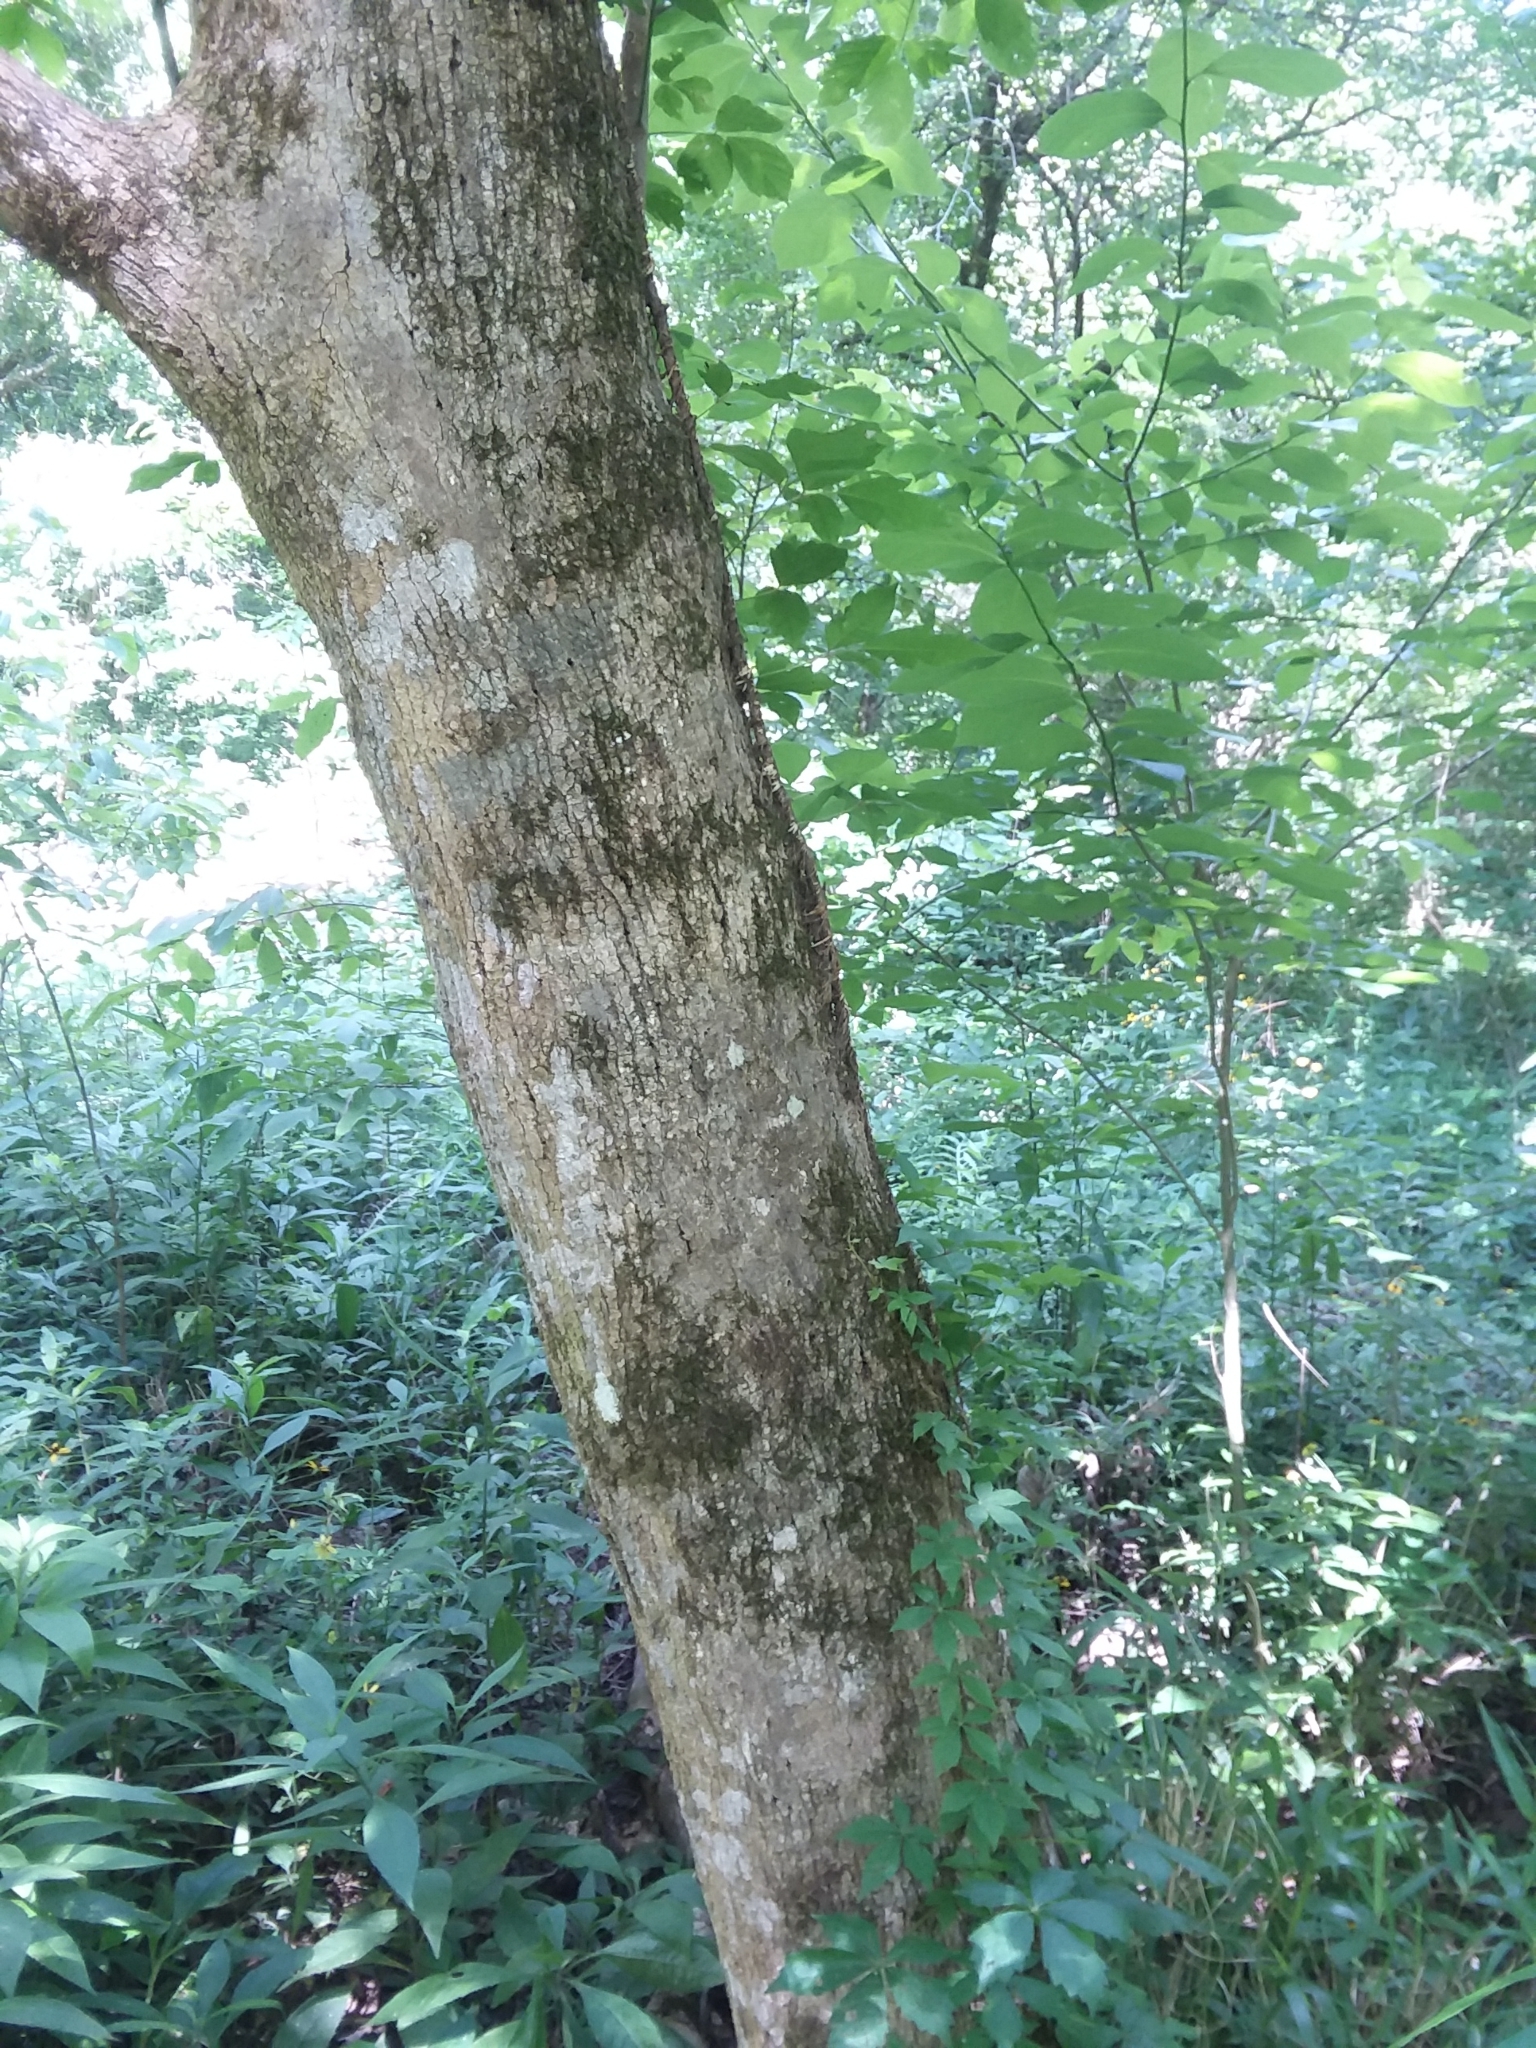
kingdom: Plantae
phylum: Tracheophyta
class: Magnoliopsida
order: Sapindales
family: Sapindaceae
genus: Acer
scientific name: Acer negundo
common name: Ashleaf maple
